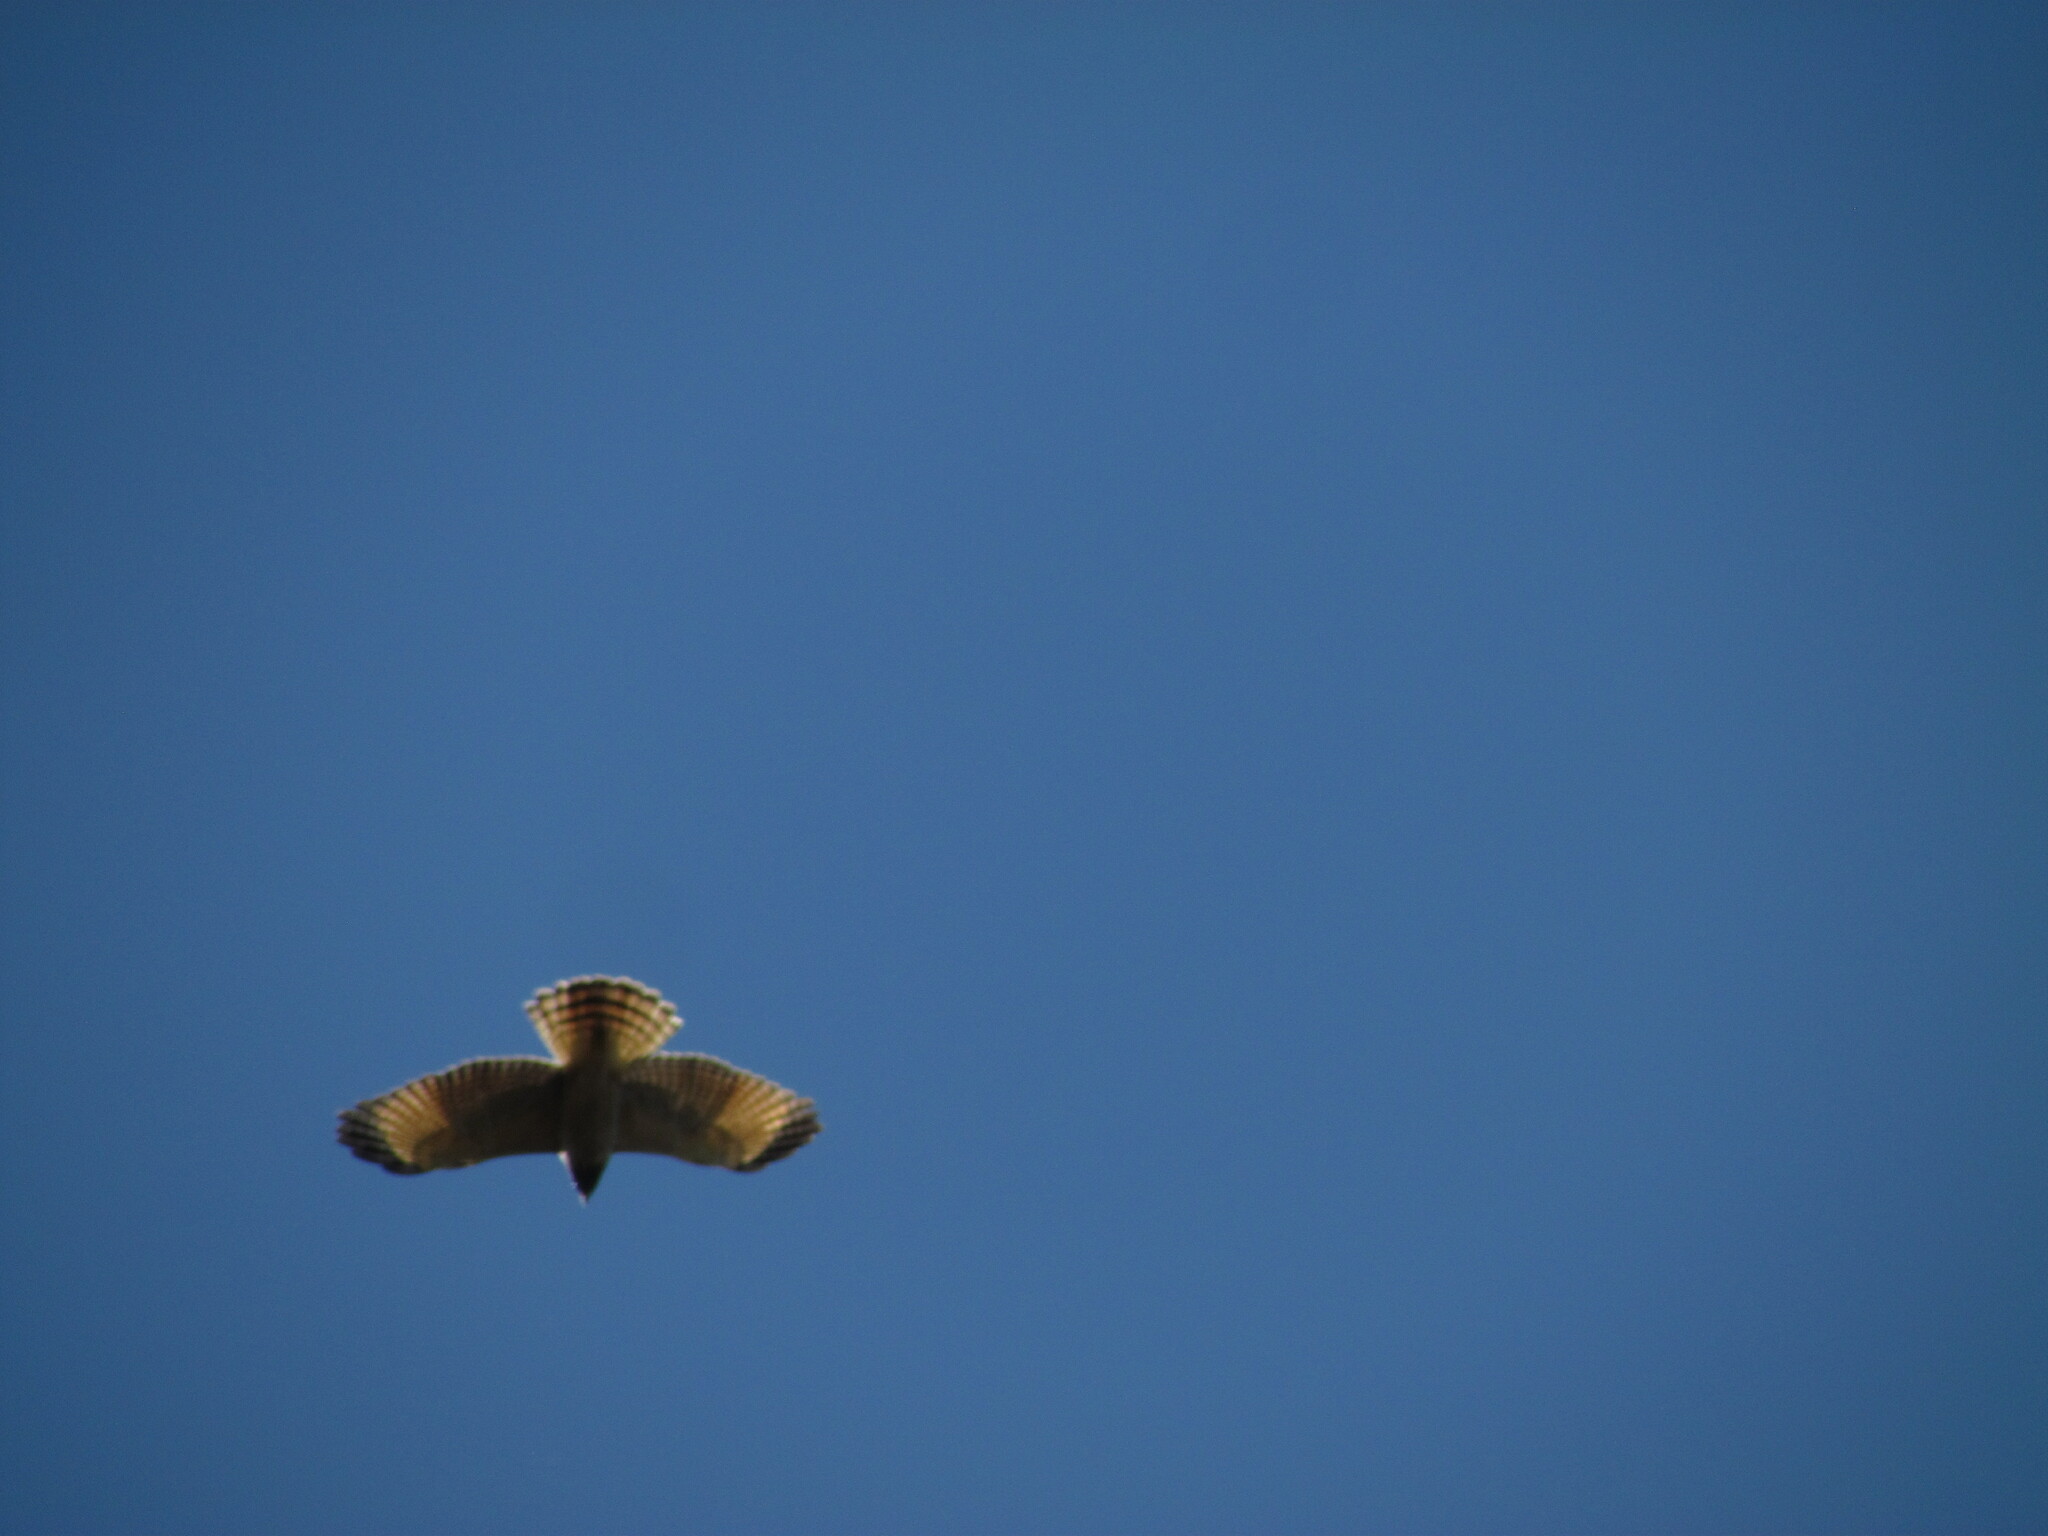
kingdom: Animalia
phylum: Chordata
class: Aves
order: Accipitriformes
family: Accipitridae
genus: Rupornis
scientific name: Rupornis magnirostris
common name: Roadside hawk
